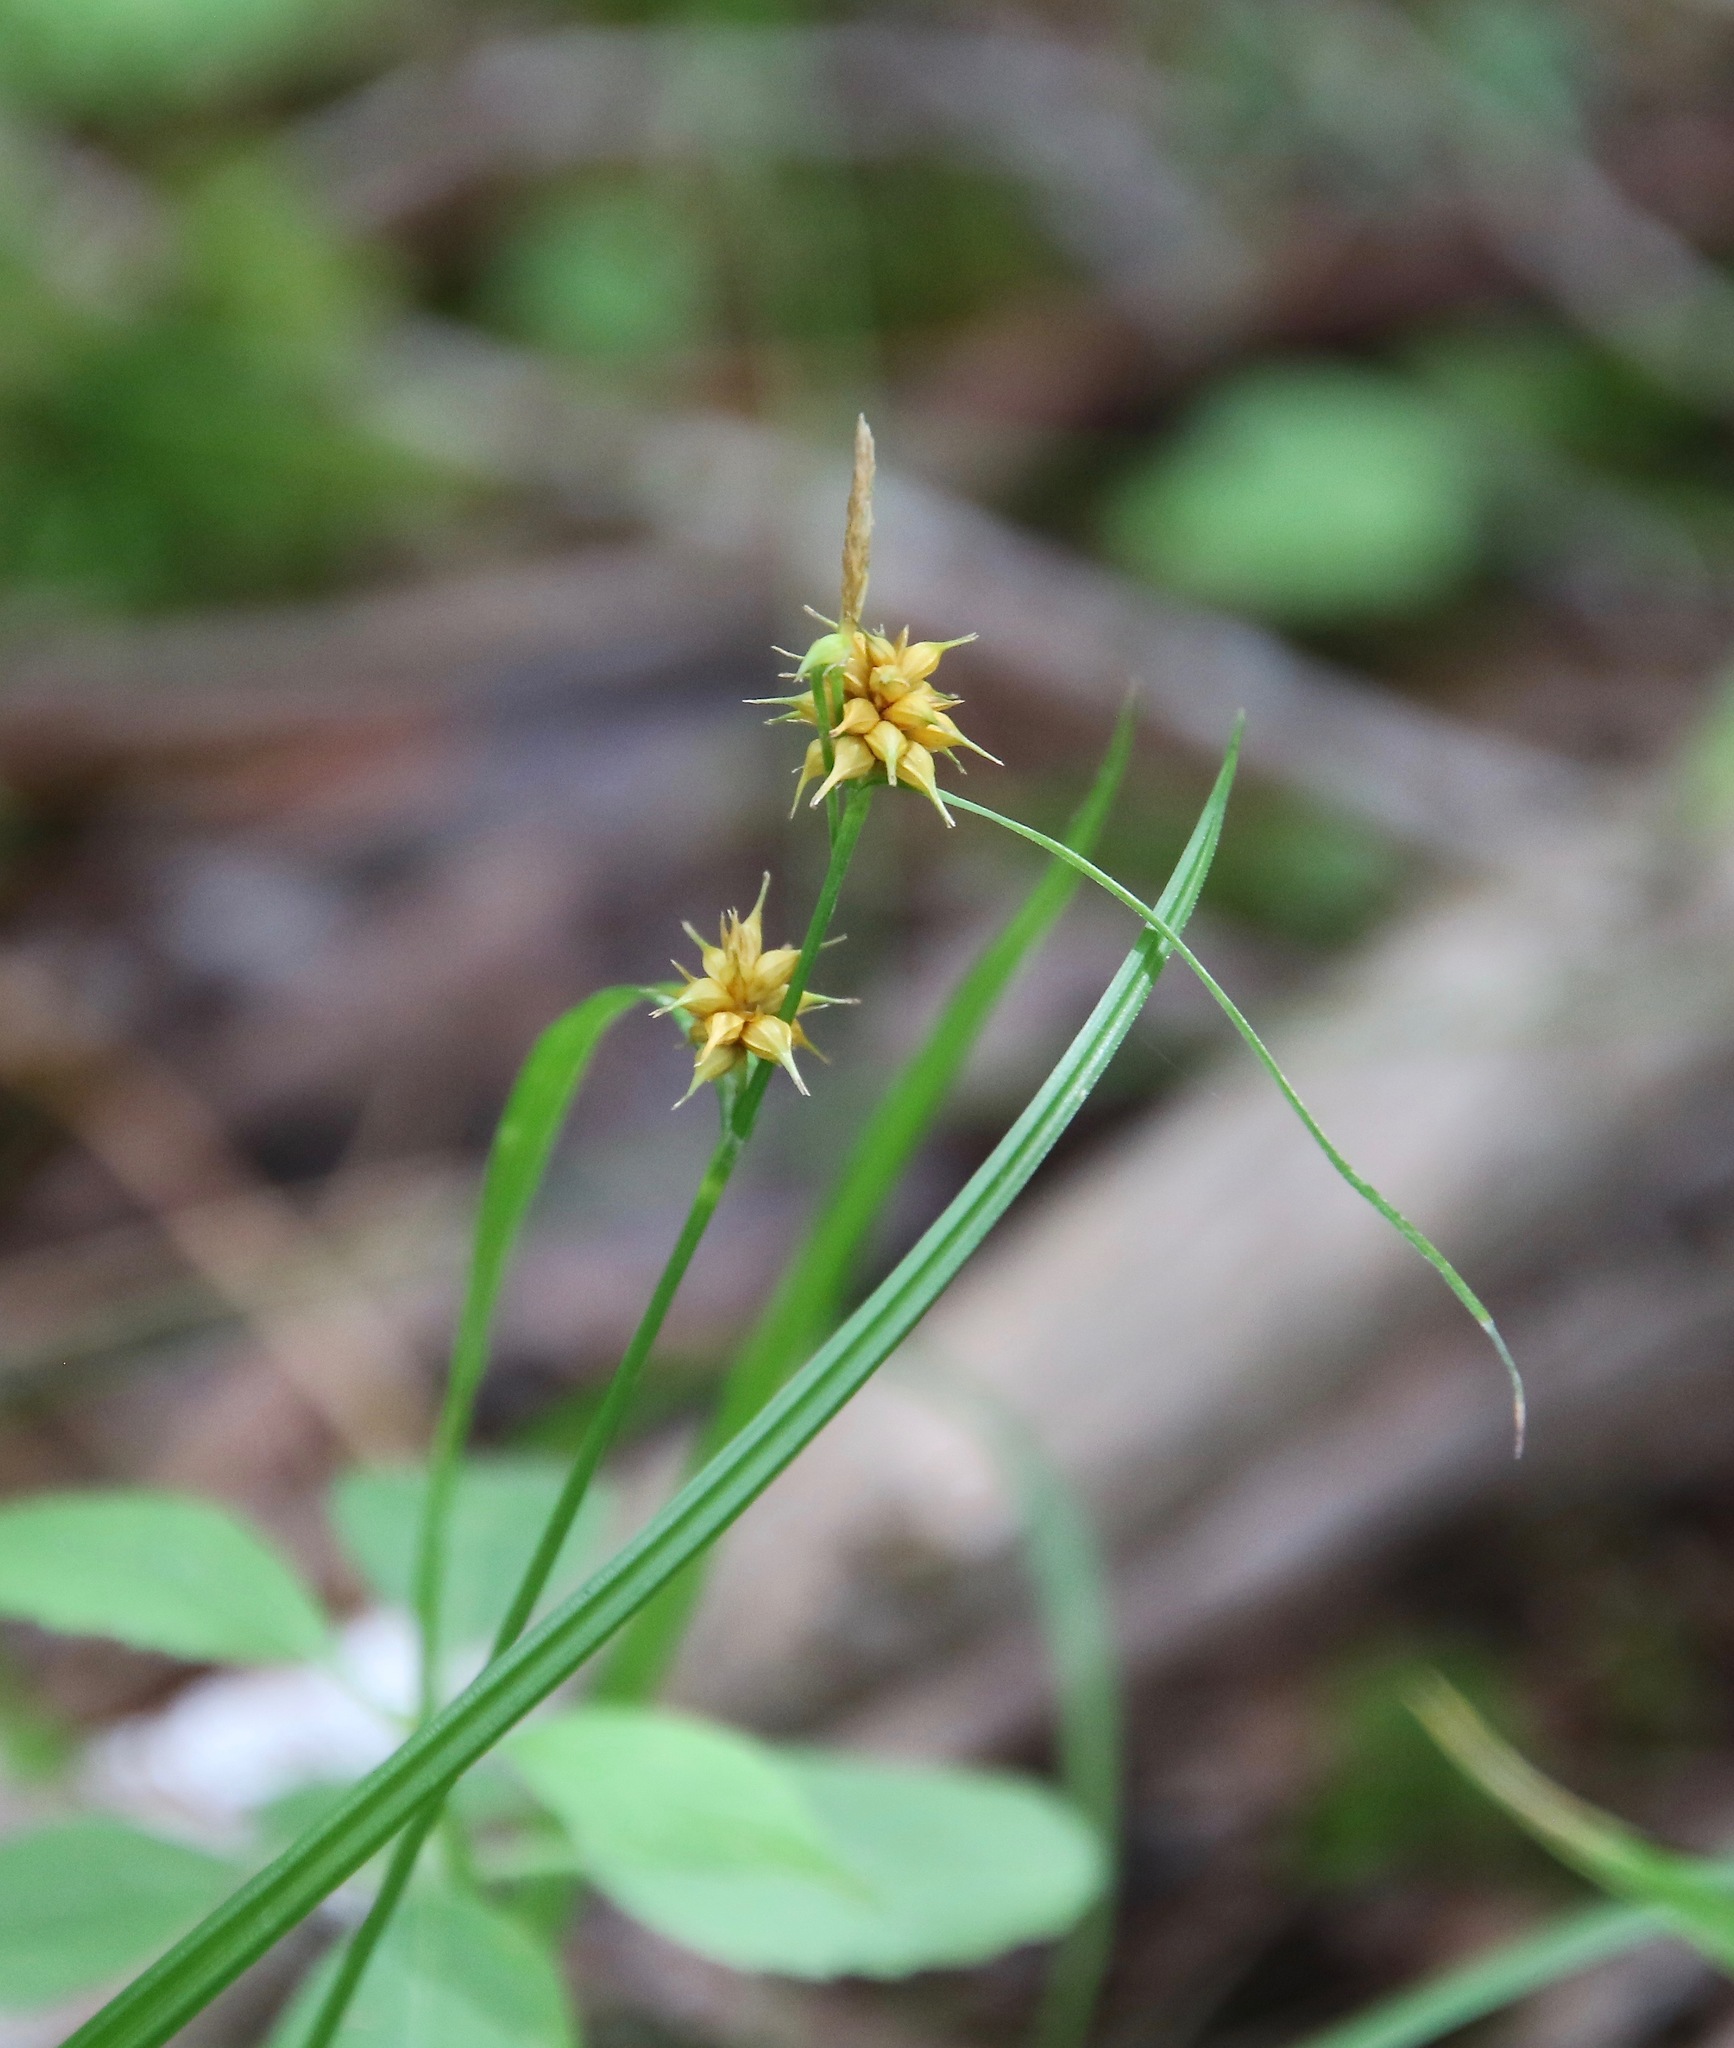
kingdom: Plantae
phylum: Tracheophyta
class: Liliopsida
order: Poales
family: Cyperaceae
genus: Carex
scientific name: Carex flava
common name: Large yellow-sedge
